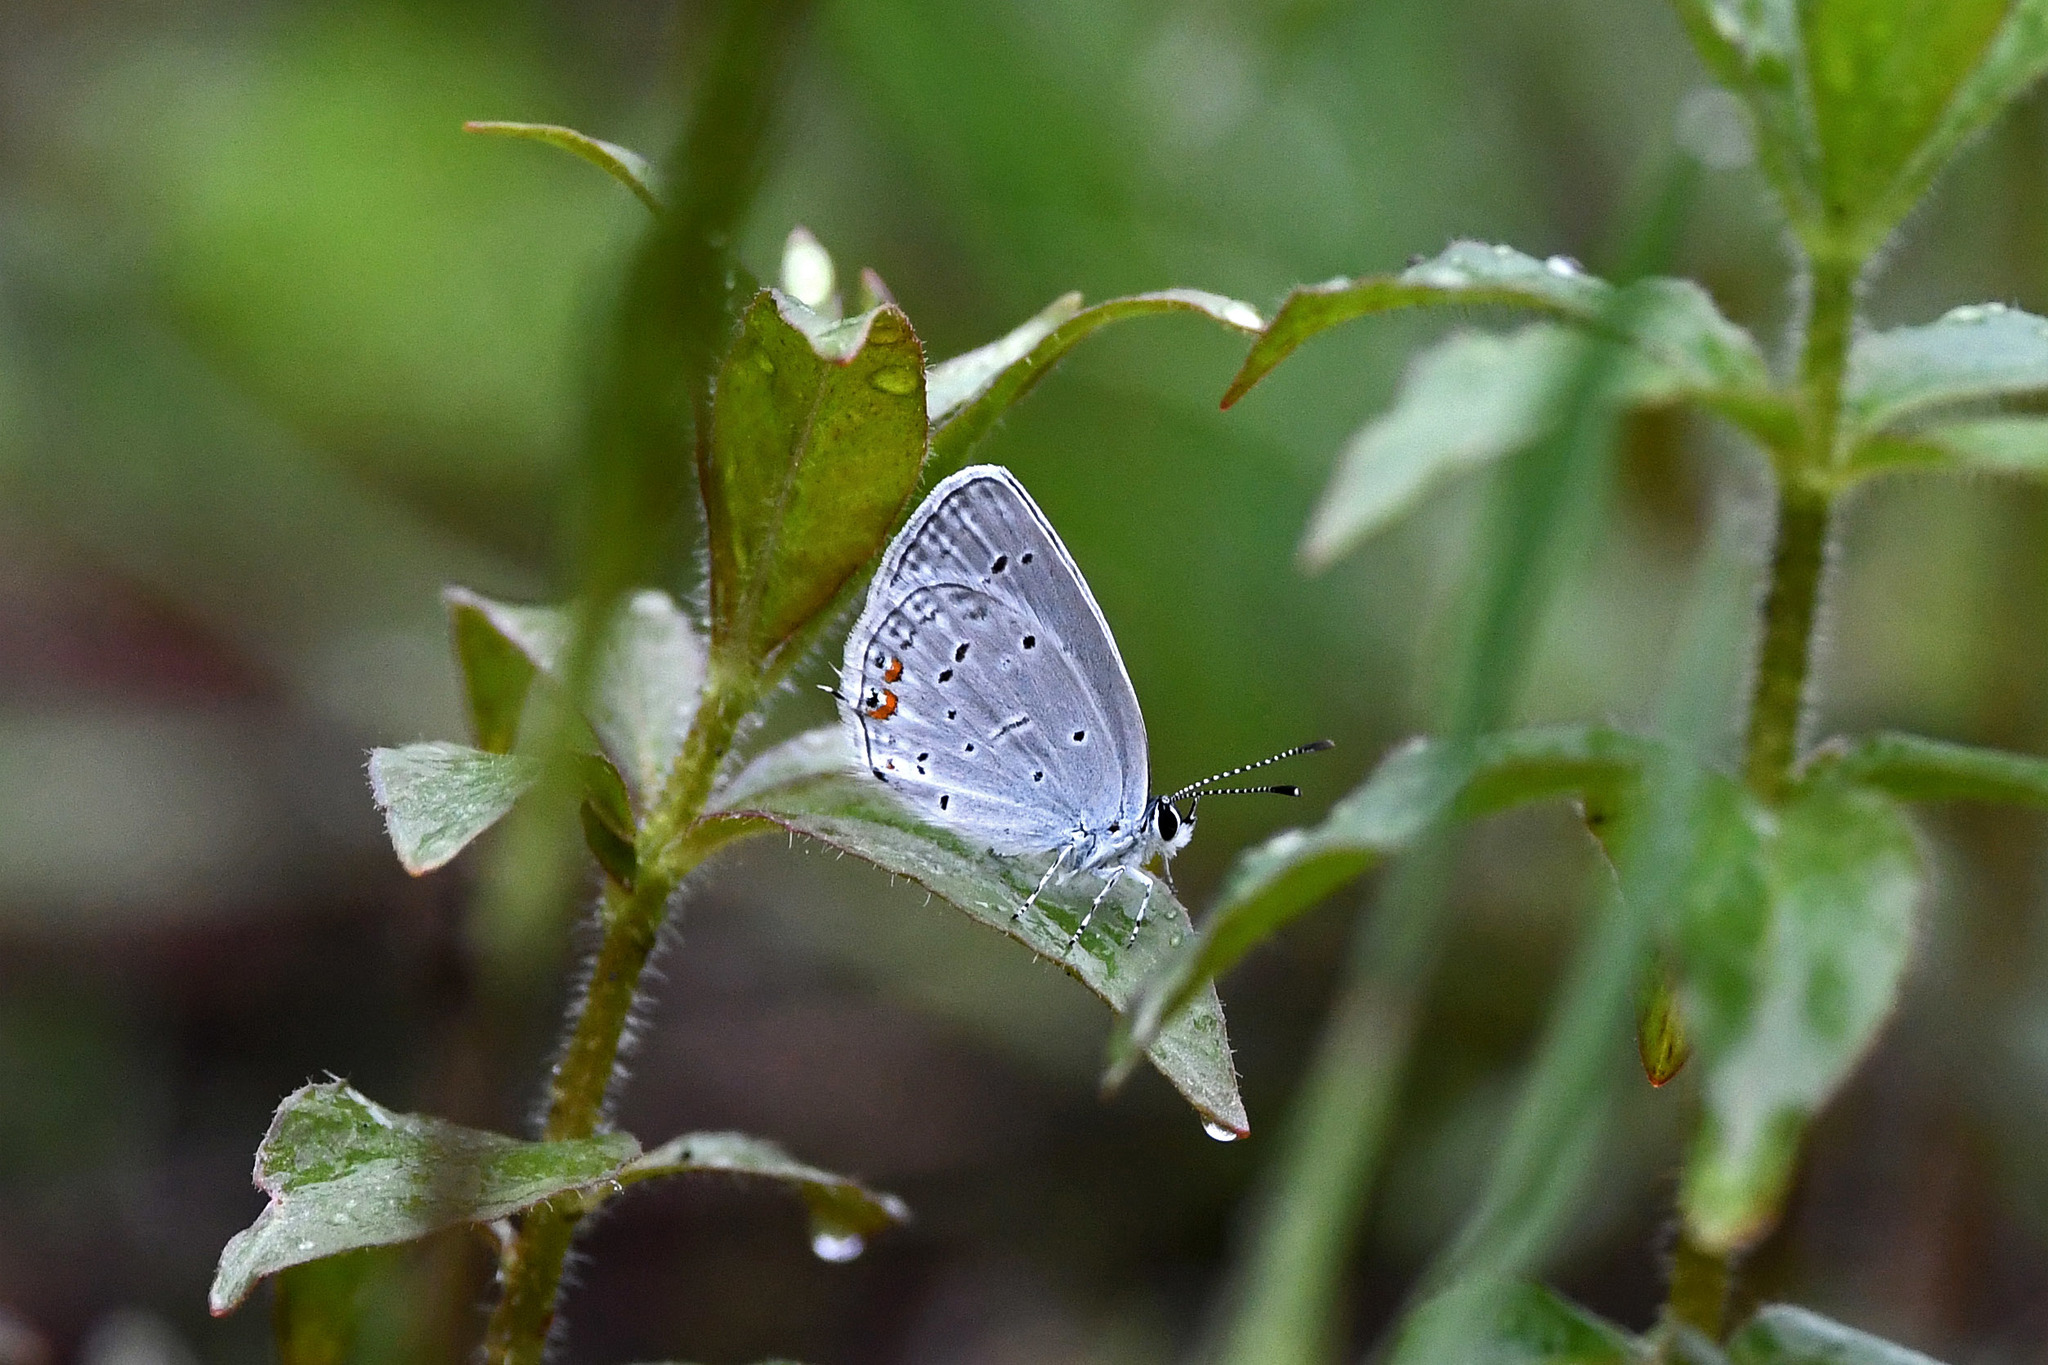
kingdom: Animalia
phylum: Arthropoda
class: Insecta
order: Lepidoptera
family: Lycaenidae
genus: Elkalyce
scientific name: Elkalyce comyntas
